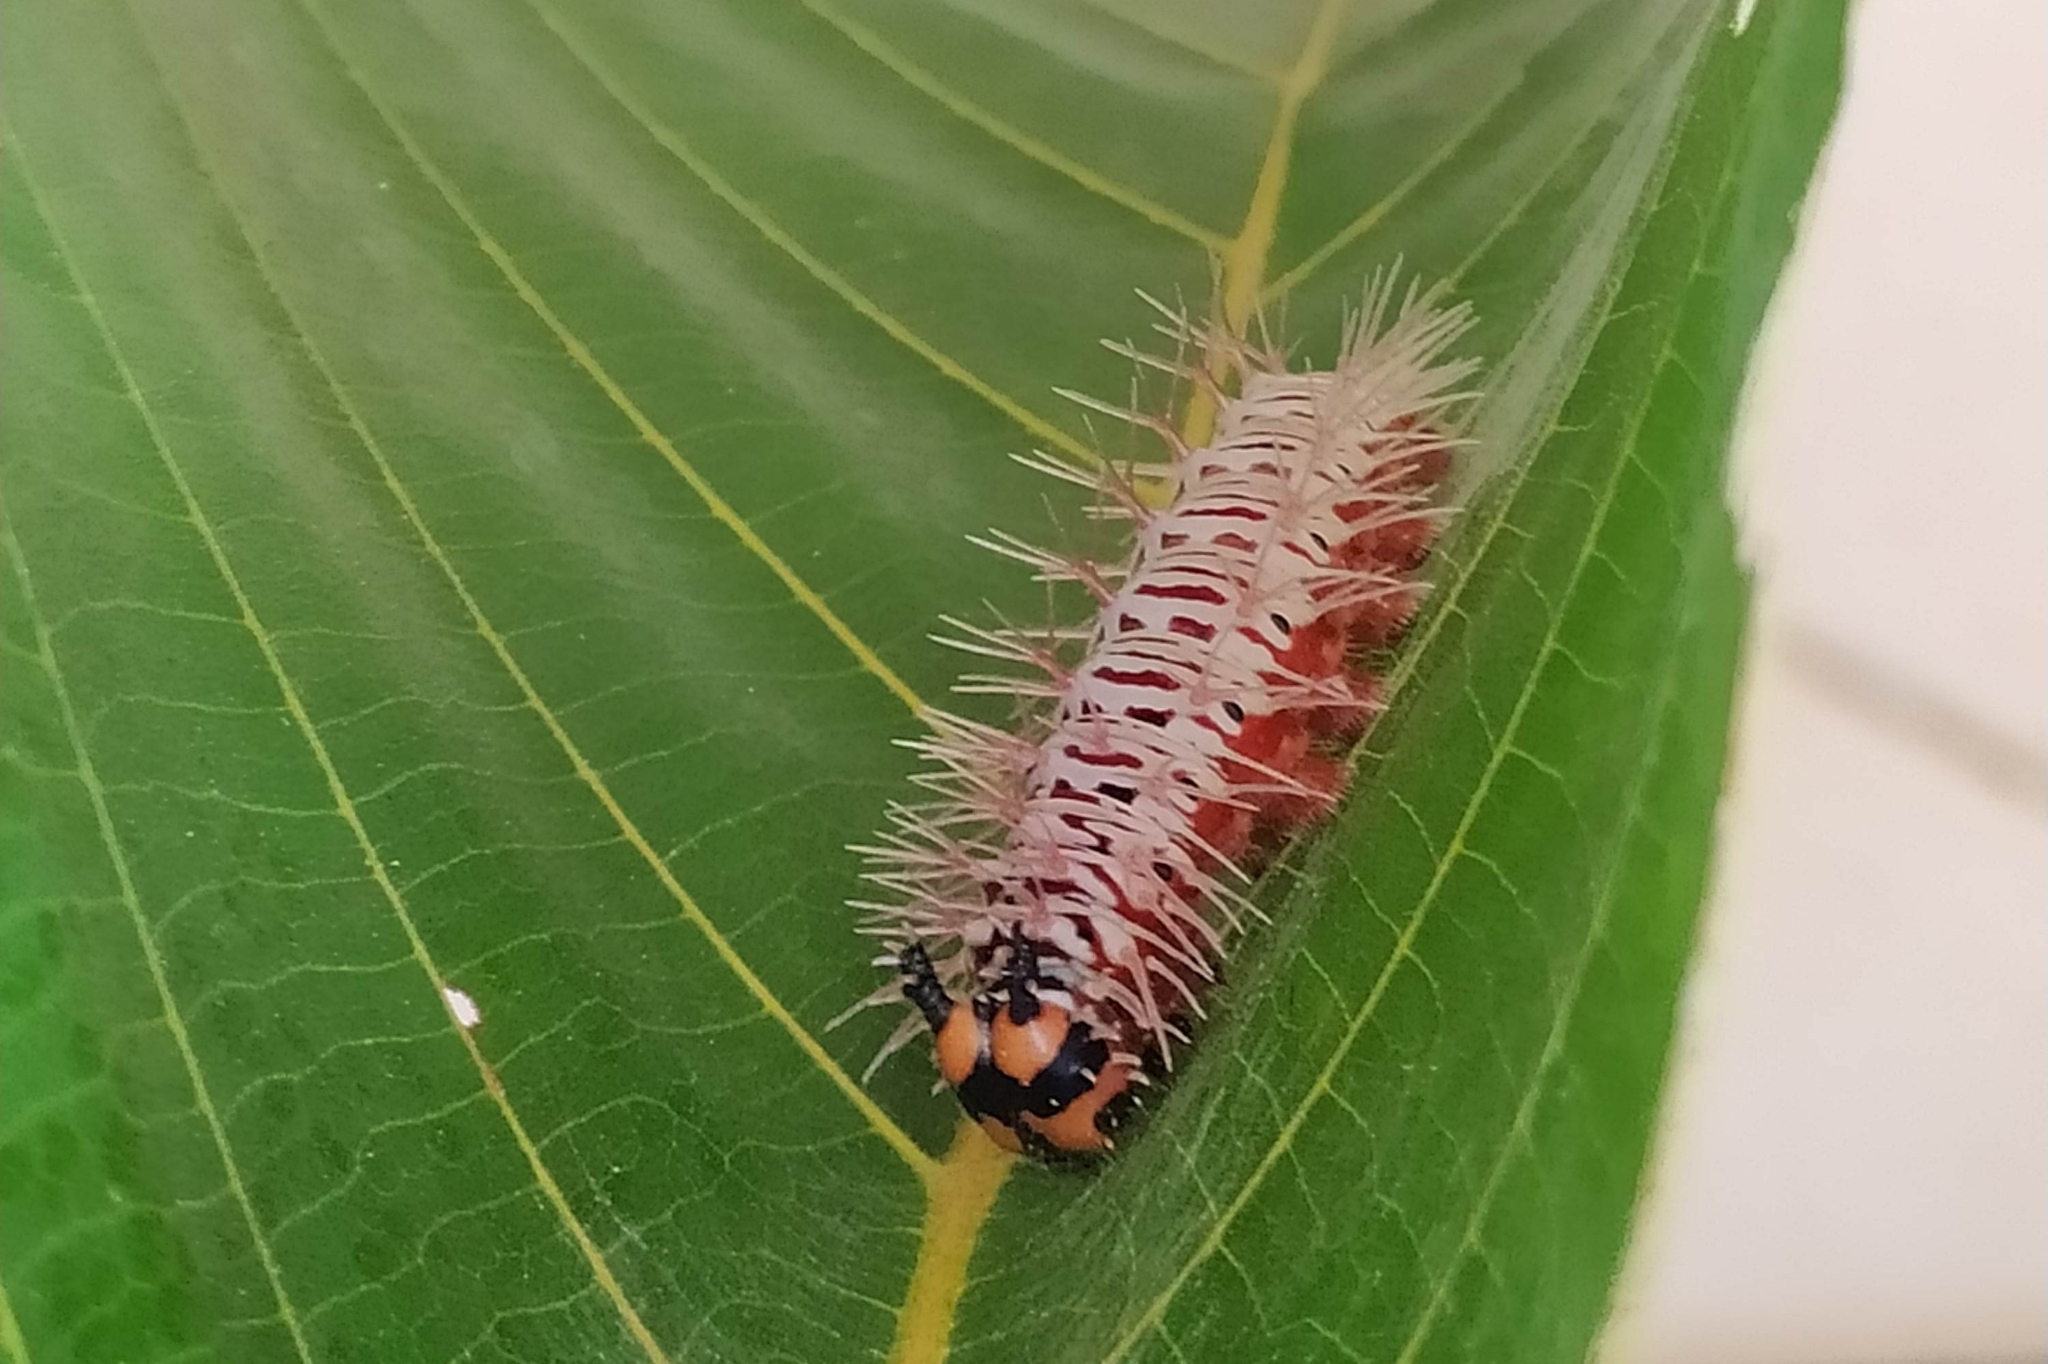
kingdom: Animalia
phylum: Arthropoda
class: Insecta
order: Lepidoptera
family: Nymphalidae
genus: Historis
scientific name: Historis odius
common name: Orion cecropian
